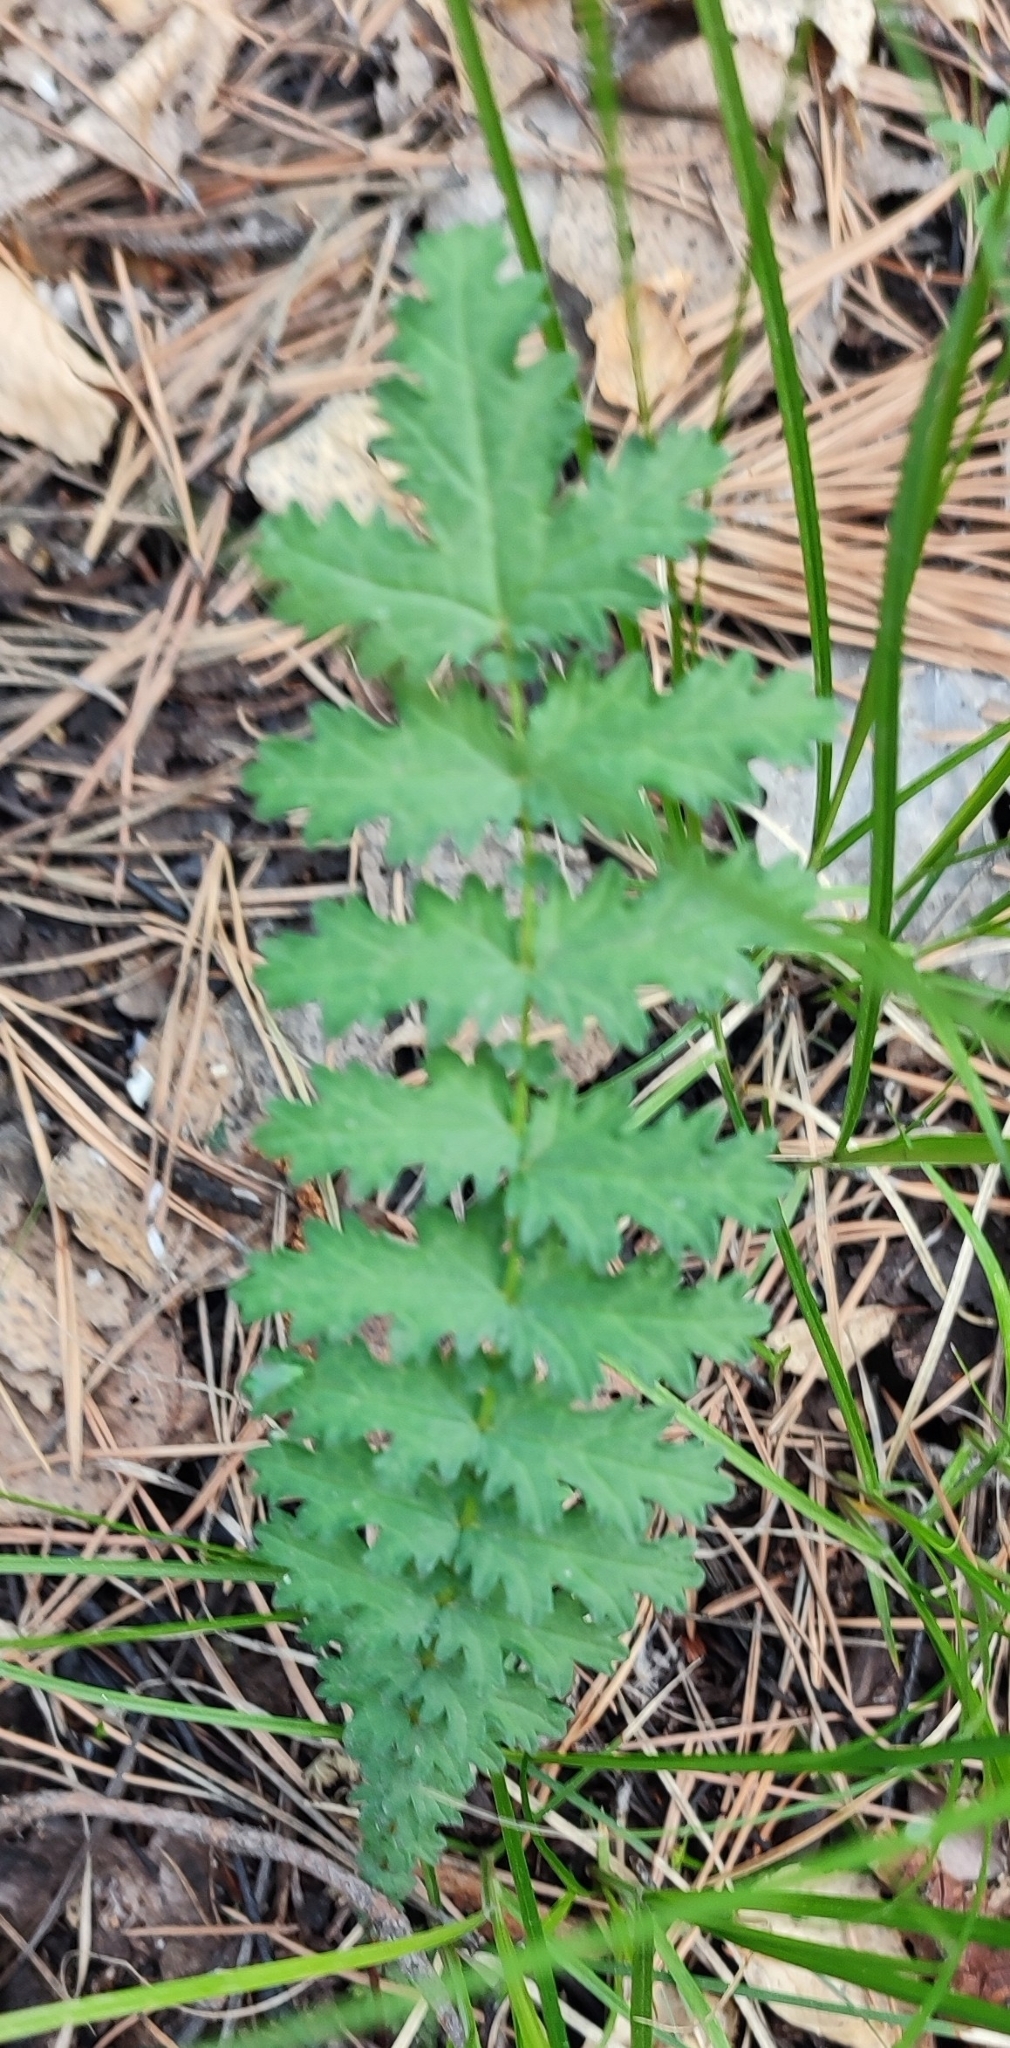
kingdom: Plantae
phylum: Tracheophyta
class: Magnoliopsida
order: Rosales
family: Rosaceae
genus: Filipendula
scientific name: Filipendula vulgaris
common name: Dropwort
